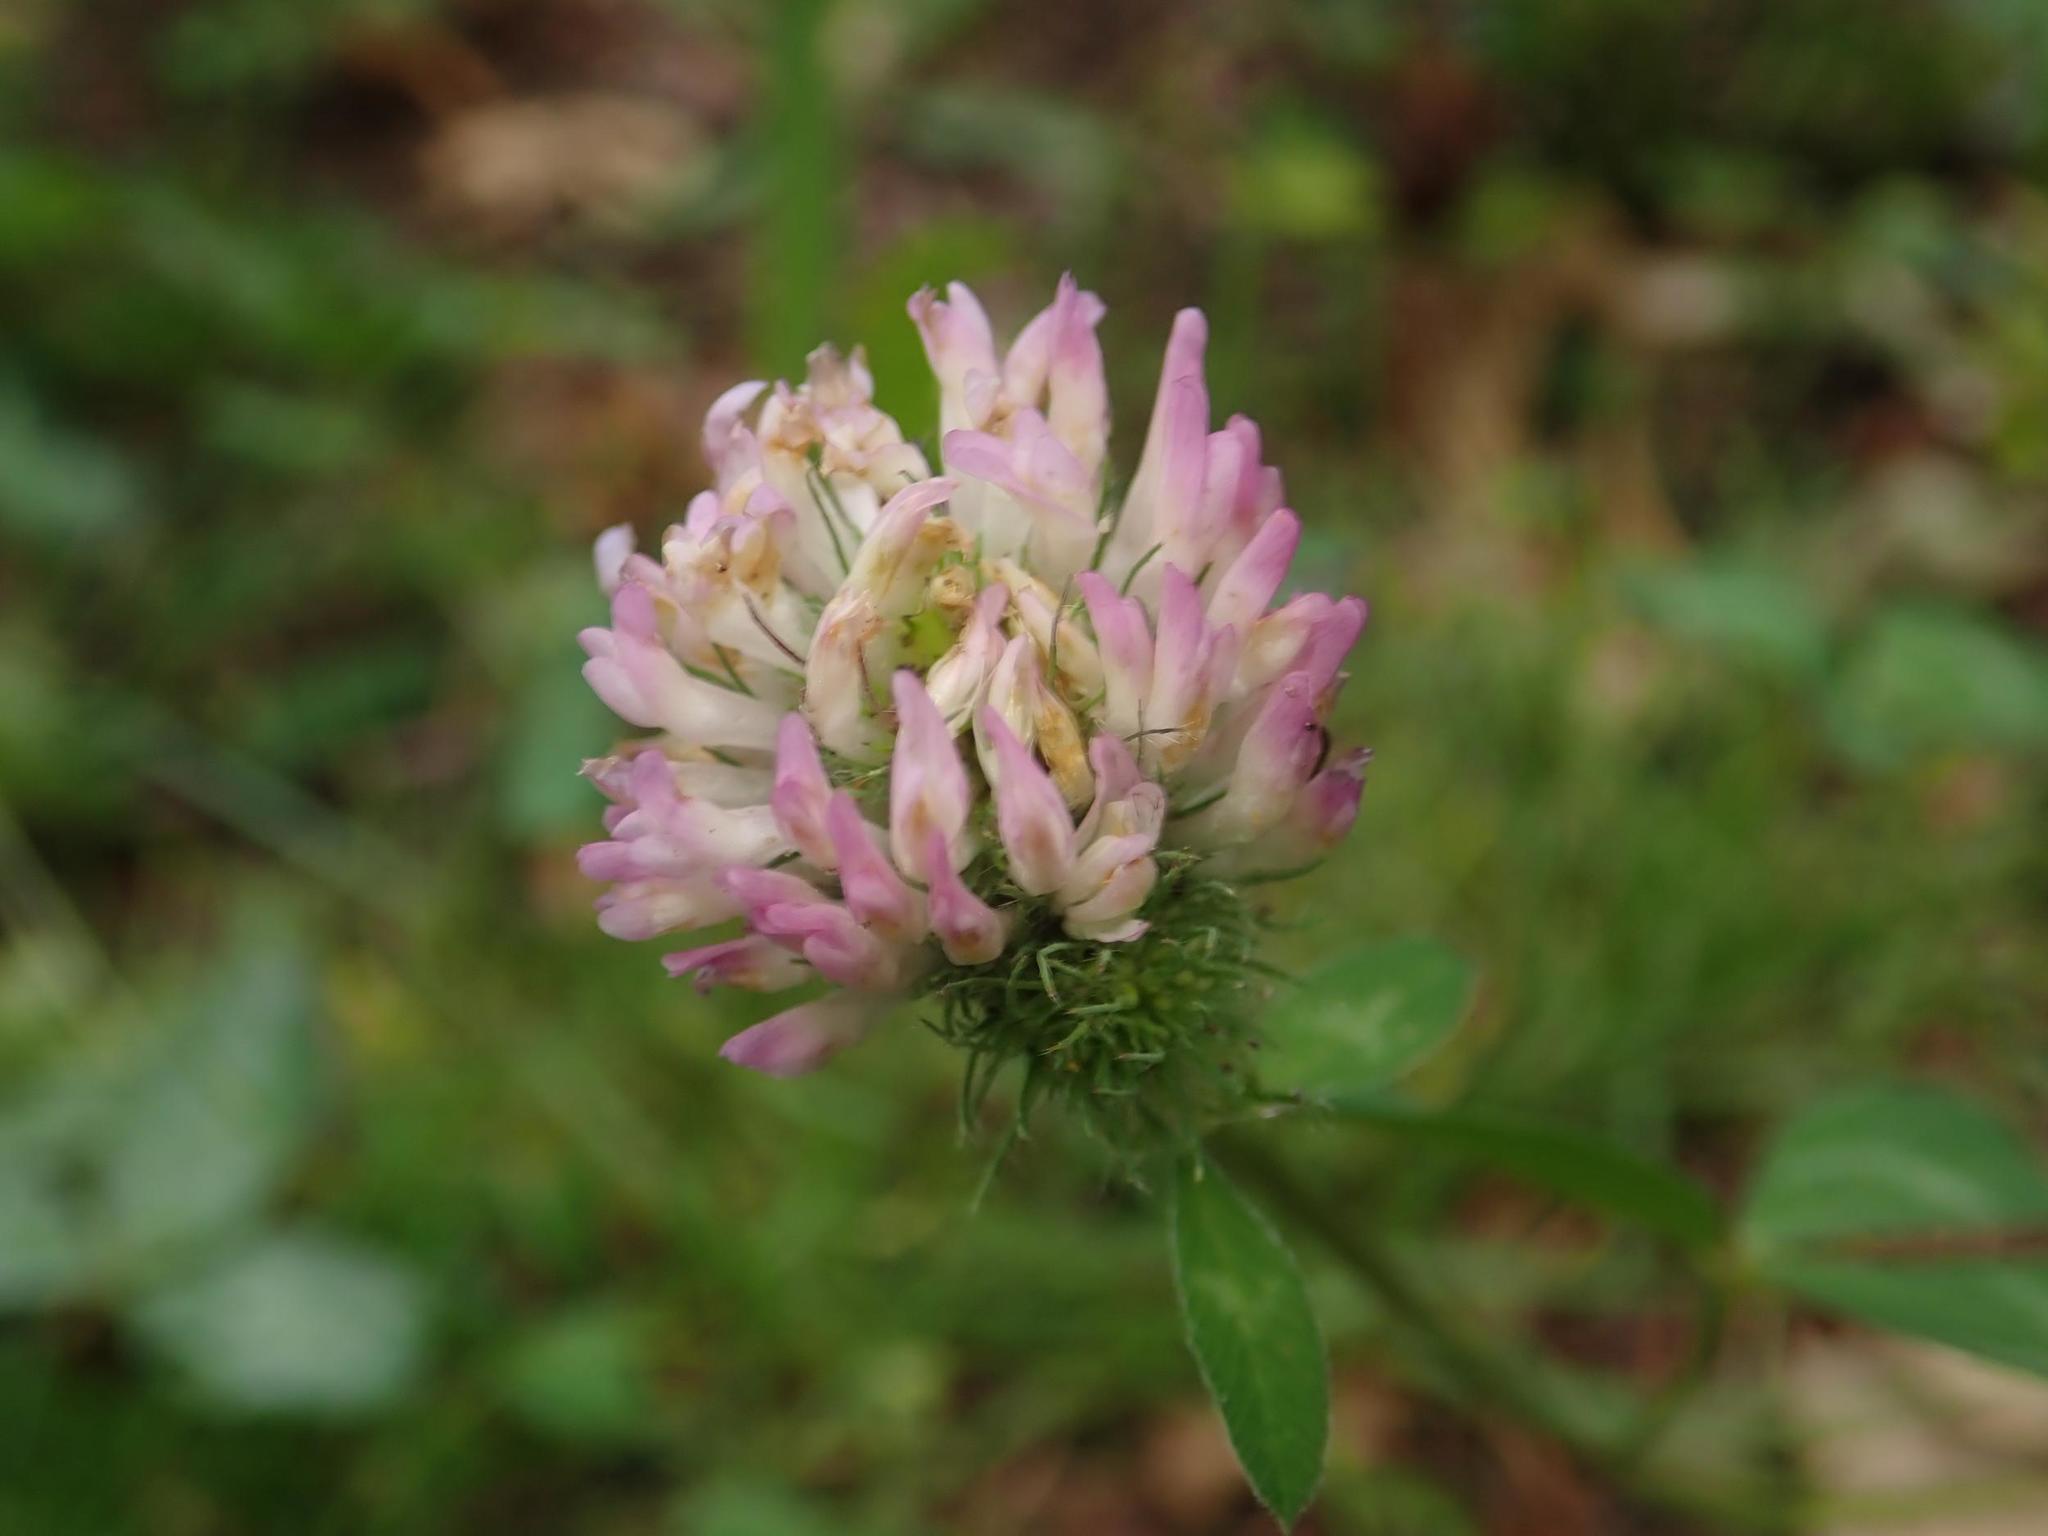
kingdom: Plantae
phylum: Tracheophyta
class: Magnoliopsida
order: Fabales
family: Fabaceae
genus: Trifolium
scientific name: Trifolium pratense
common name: Red clover
